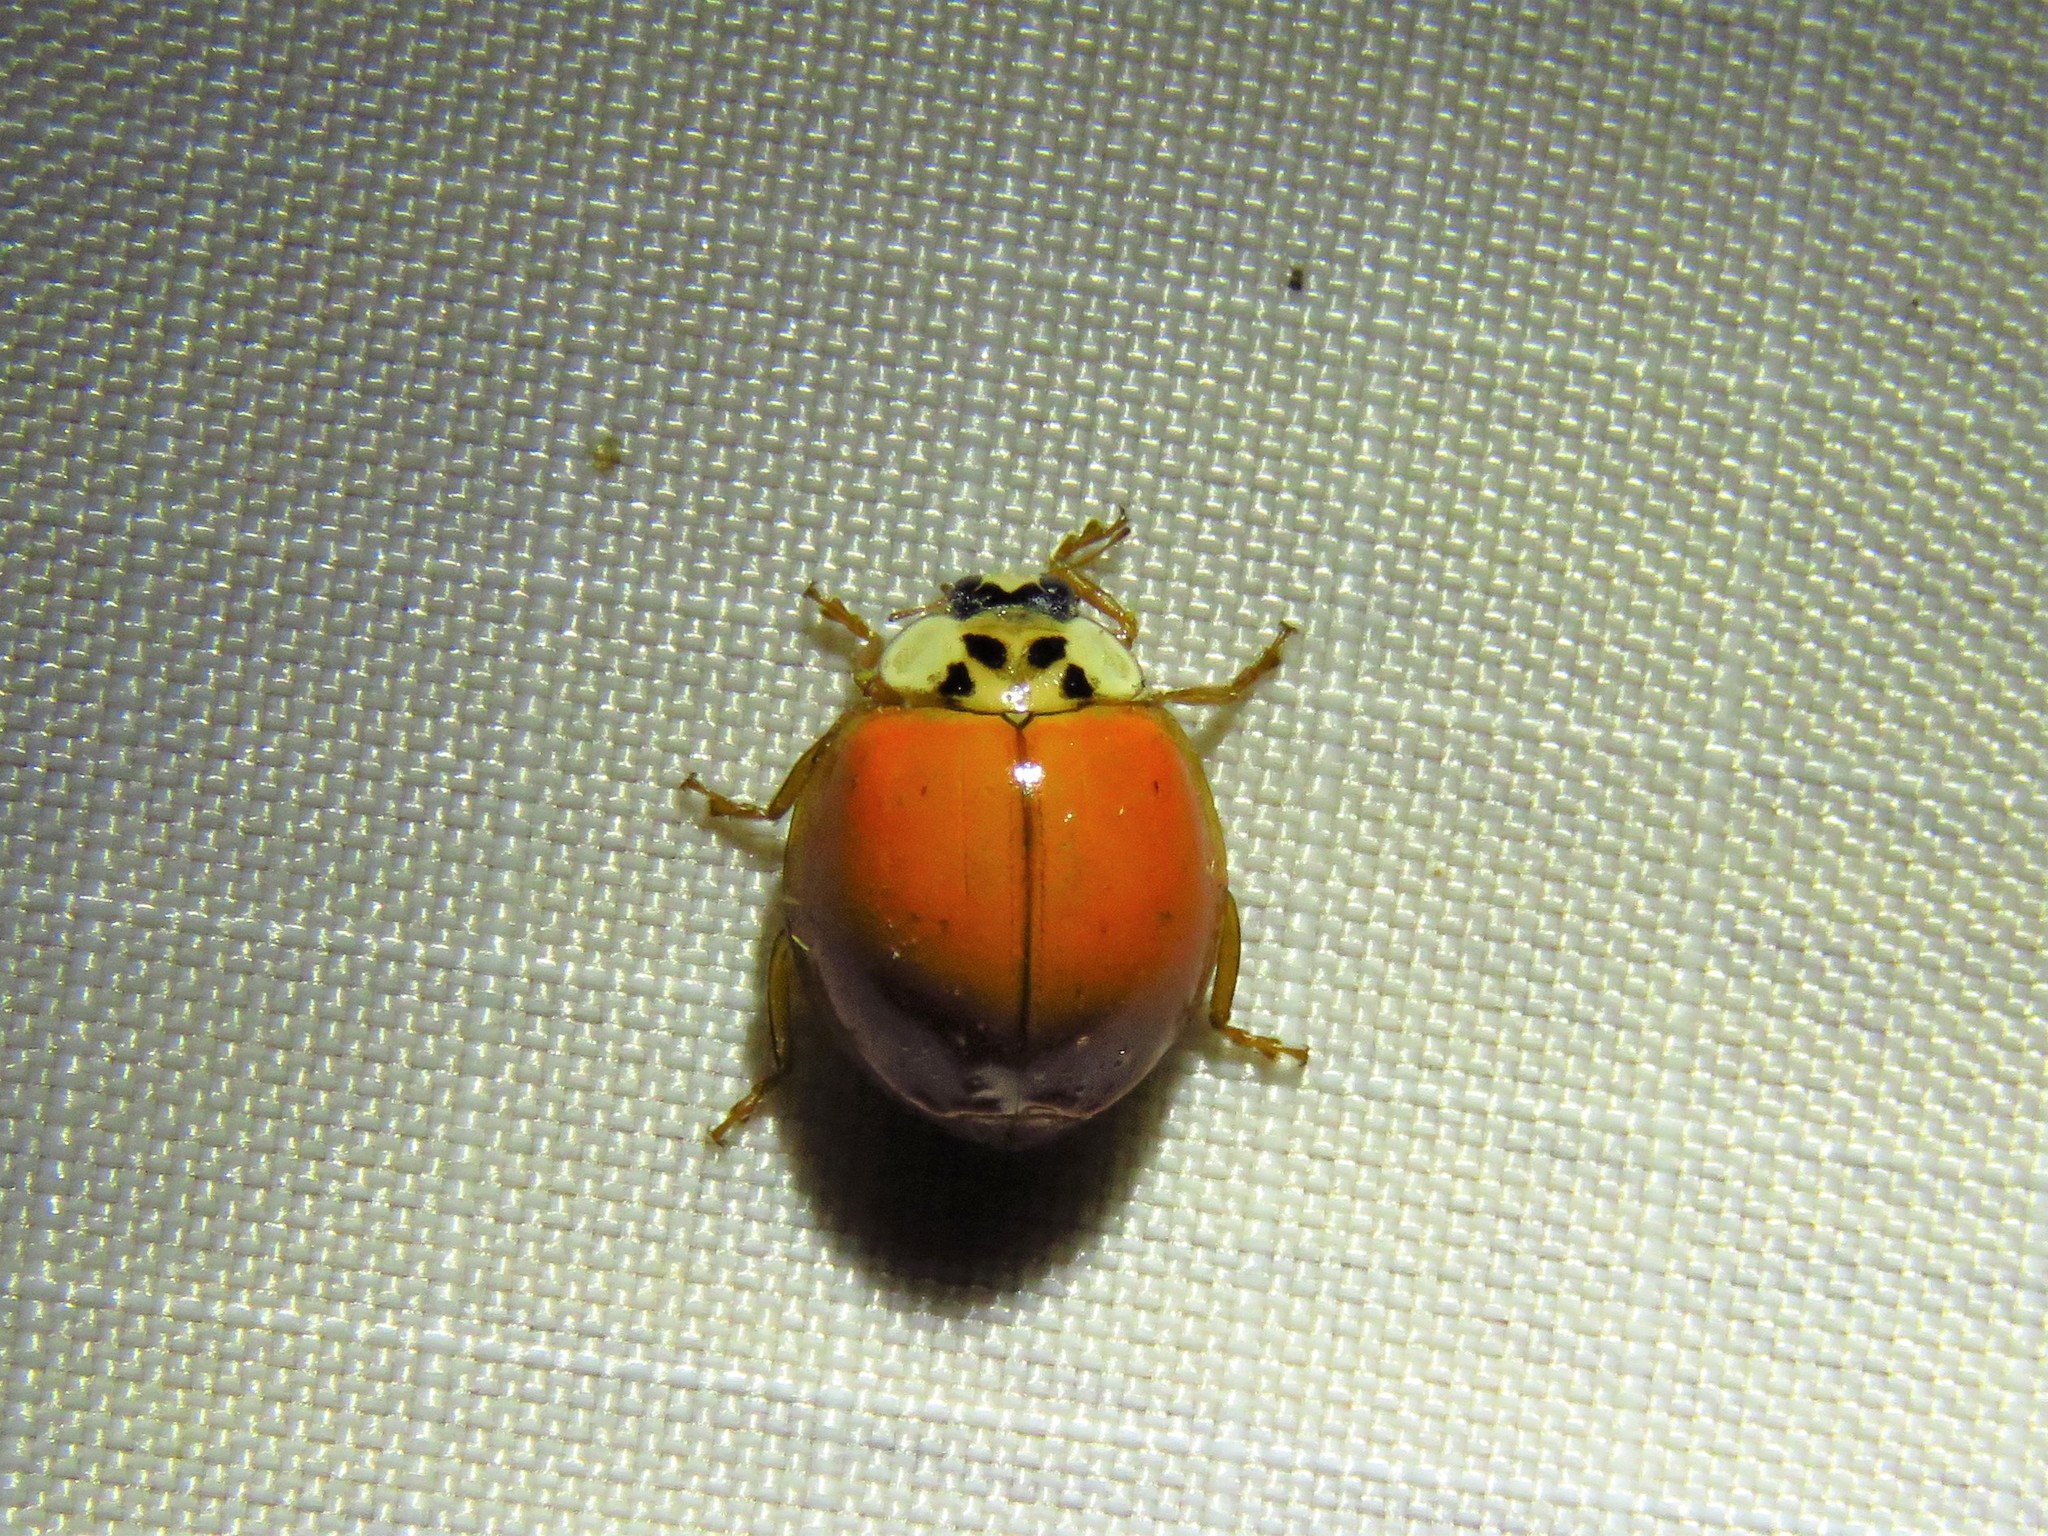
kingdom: Animalia
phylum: Arthropoda
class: Insecta
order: Coleoptera
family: Coccinellidae
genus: Harmonia
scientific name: Harmonia axyridis
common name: Harlequin ladybird
